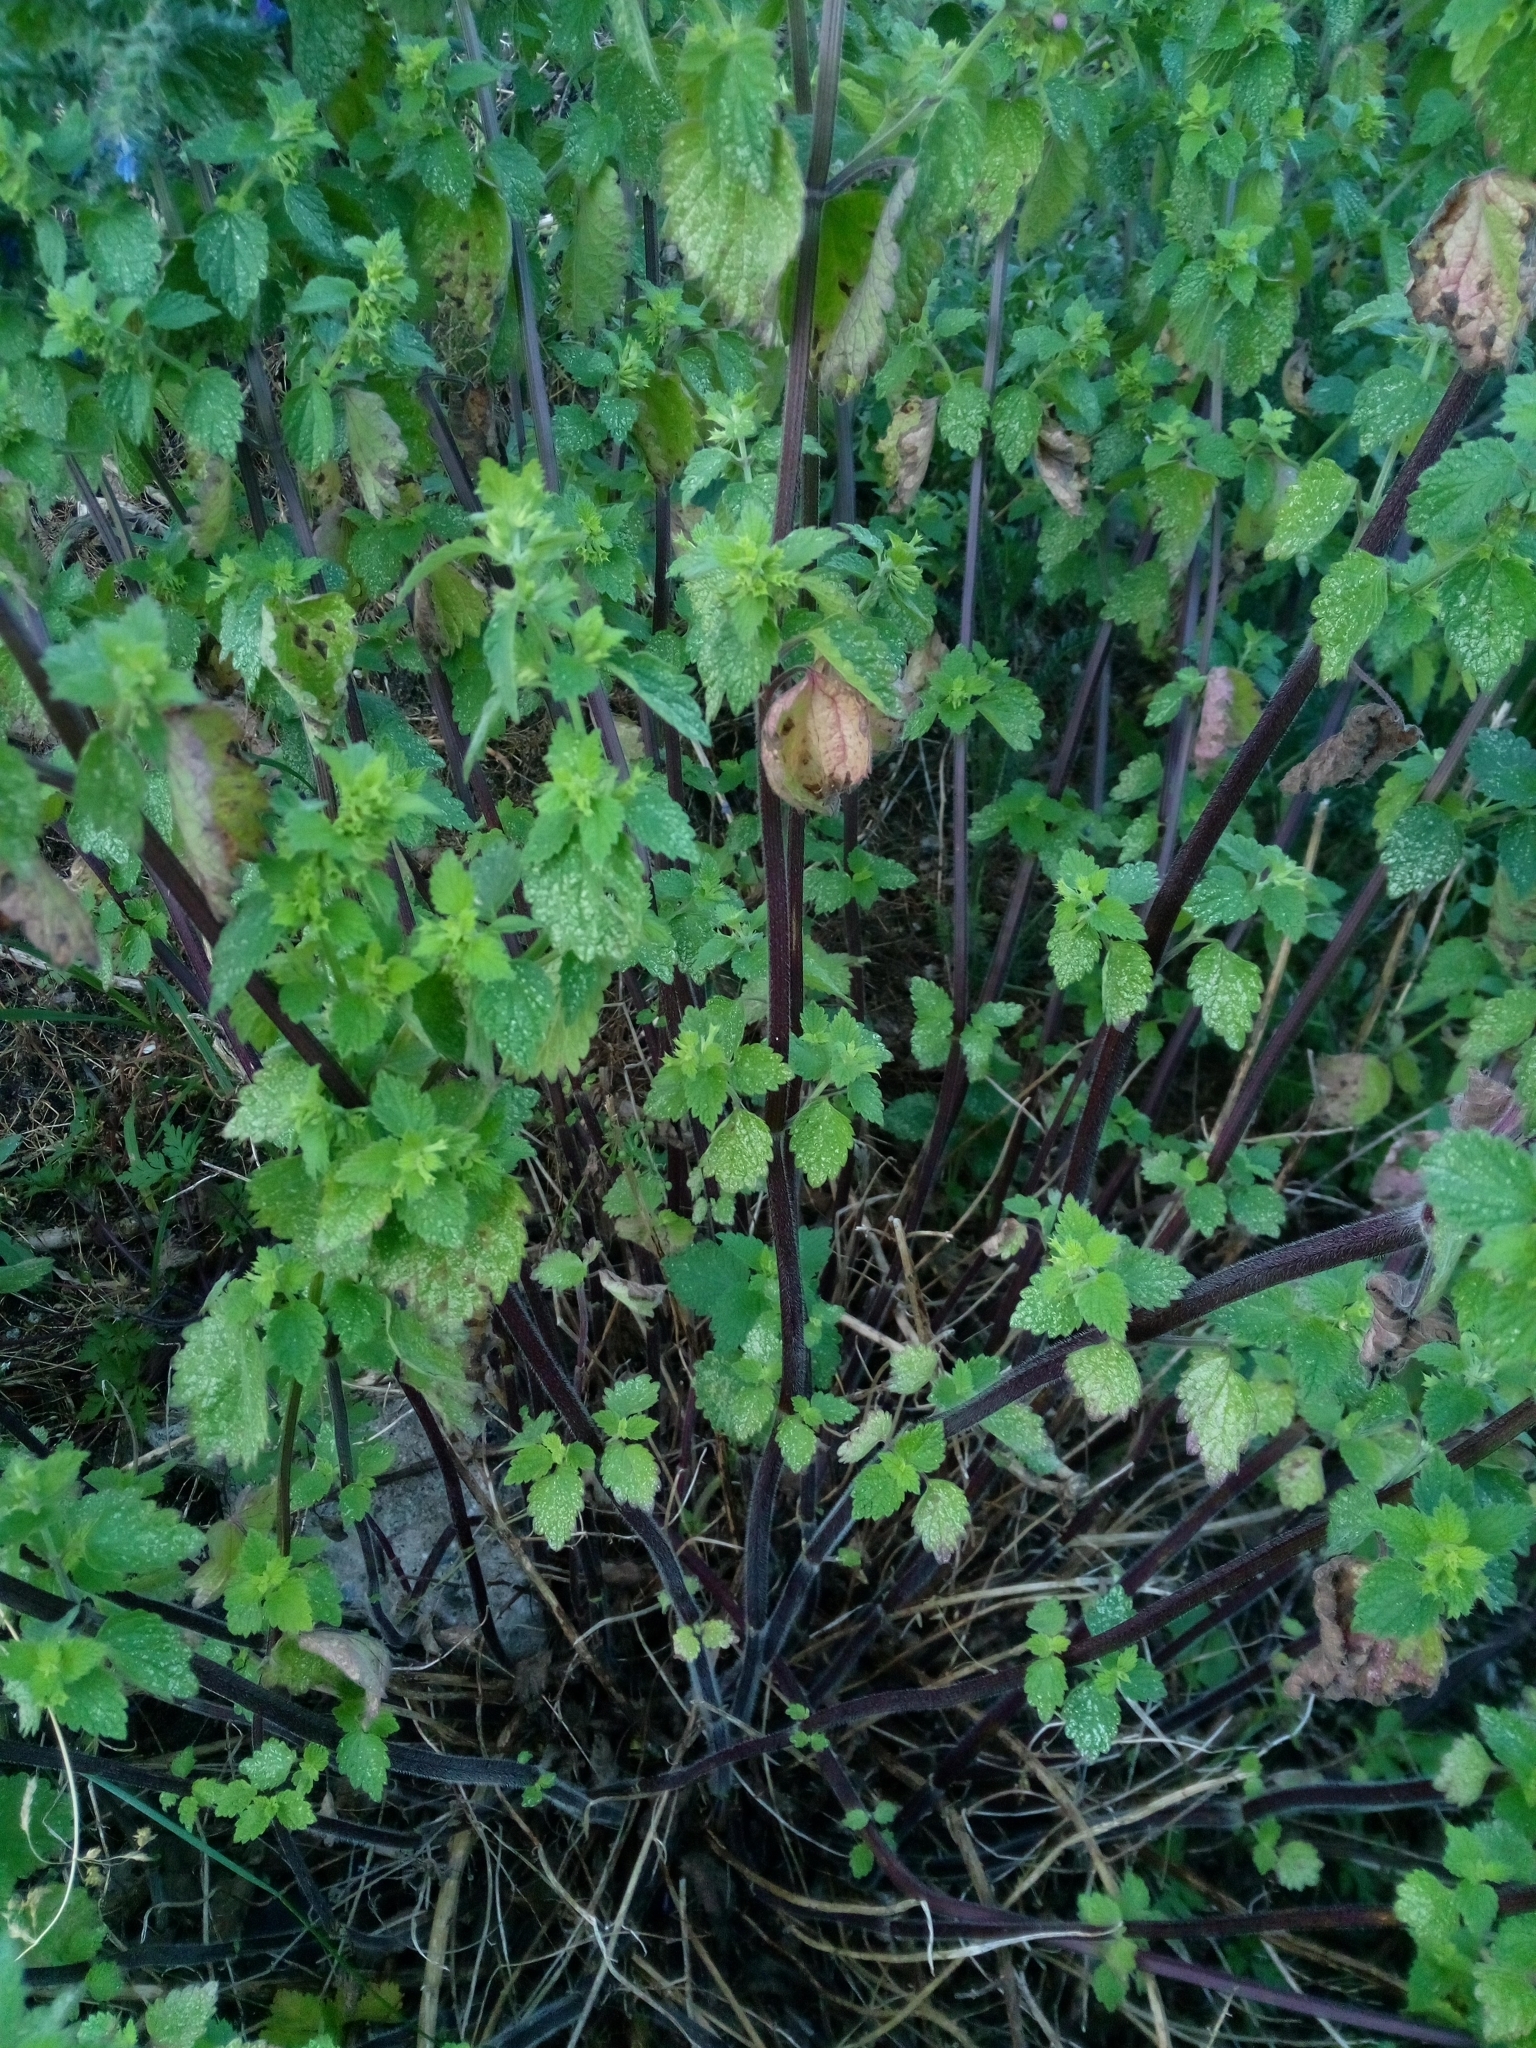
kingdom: Plantae
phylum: Tracheophyta
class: Magnoliopsida
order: Lamiales
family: Lamiaceae
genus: Ballota
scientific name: Ballota nigra
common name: Black horehound
